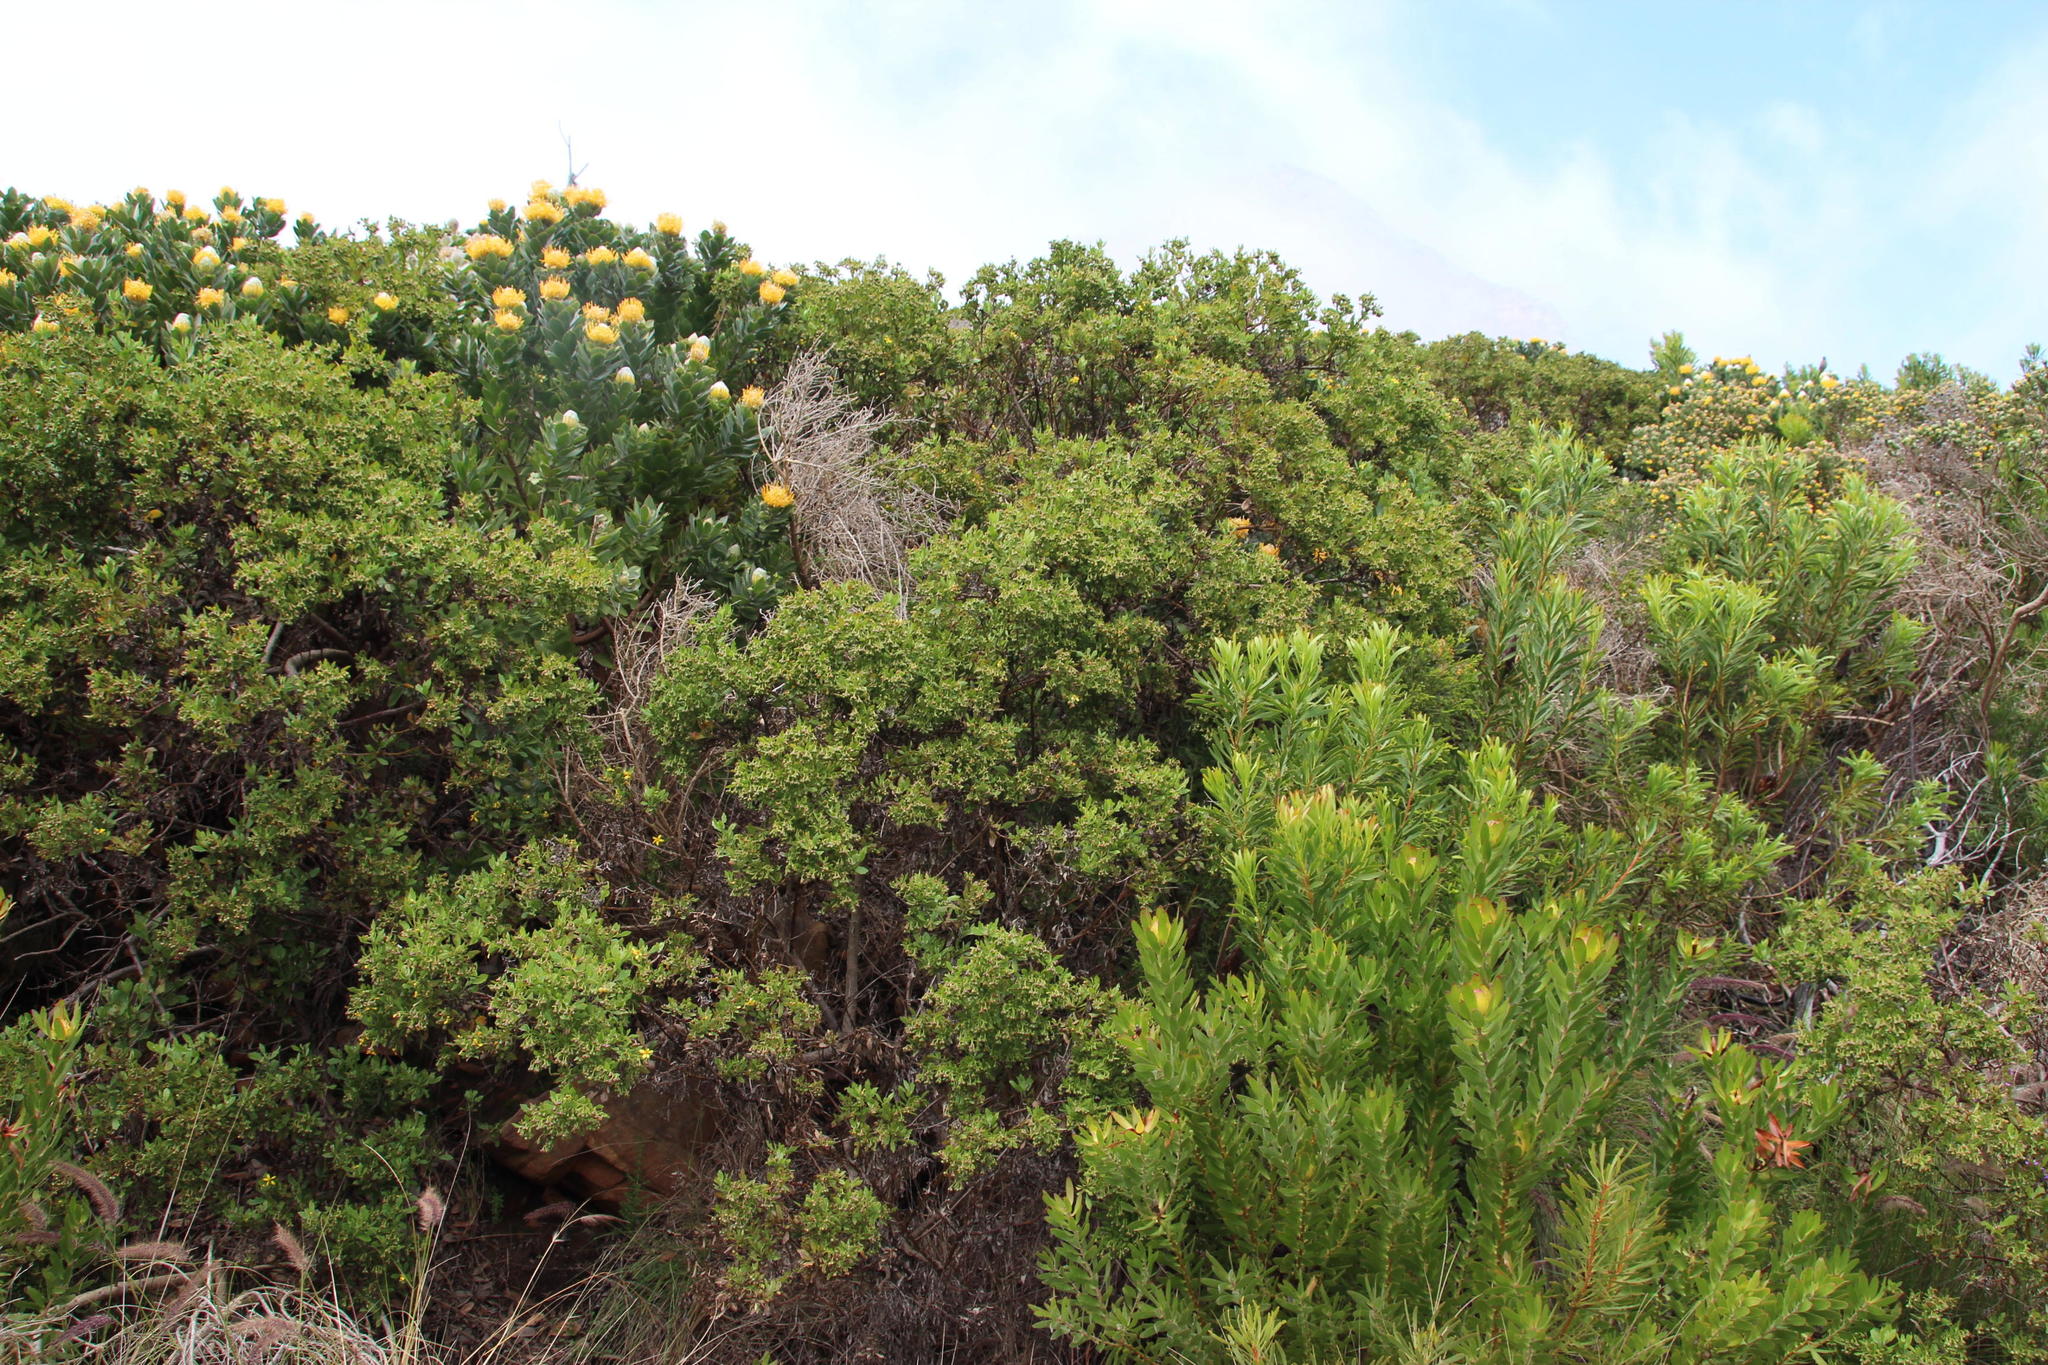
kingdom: Plantae
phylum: Tracheophyta
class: Magnoliopsida
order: Asterales
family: Asteraceae
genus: Osteospermum
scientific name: Osteospermum moniliferum
